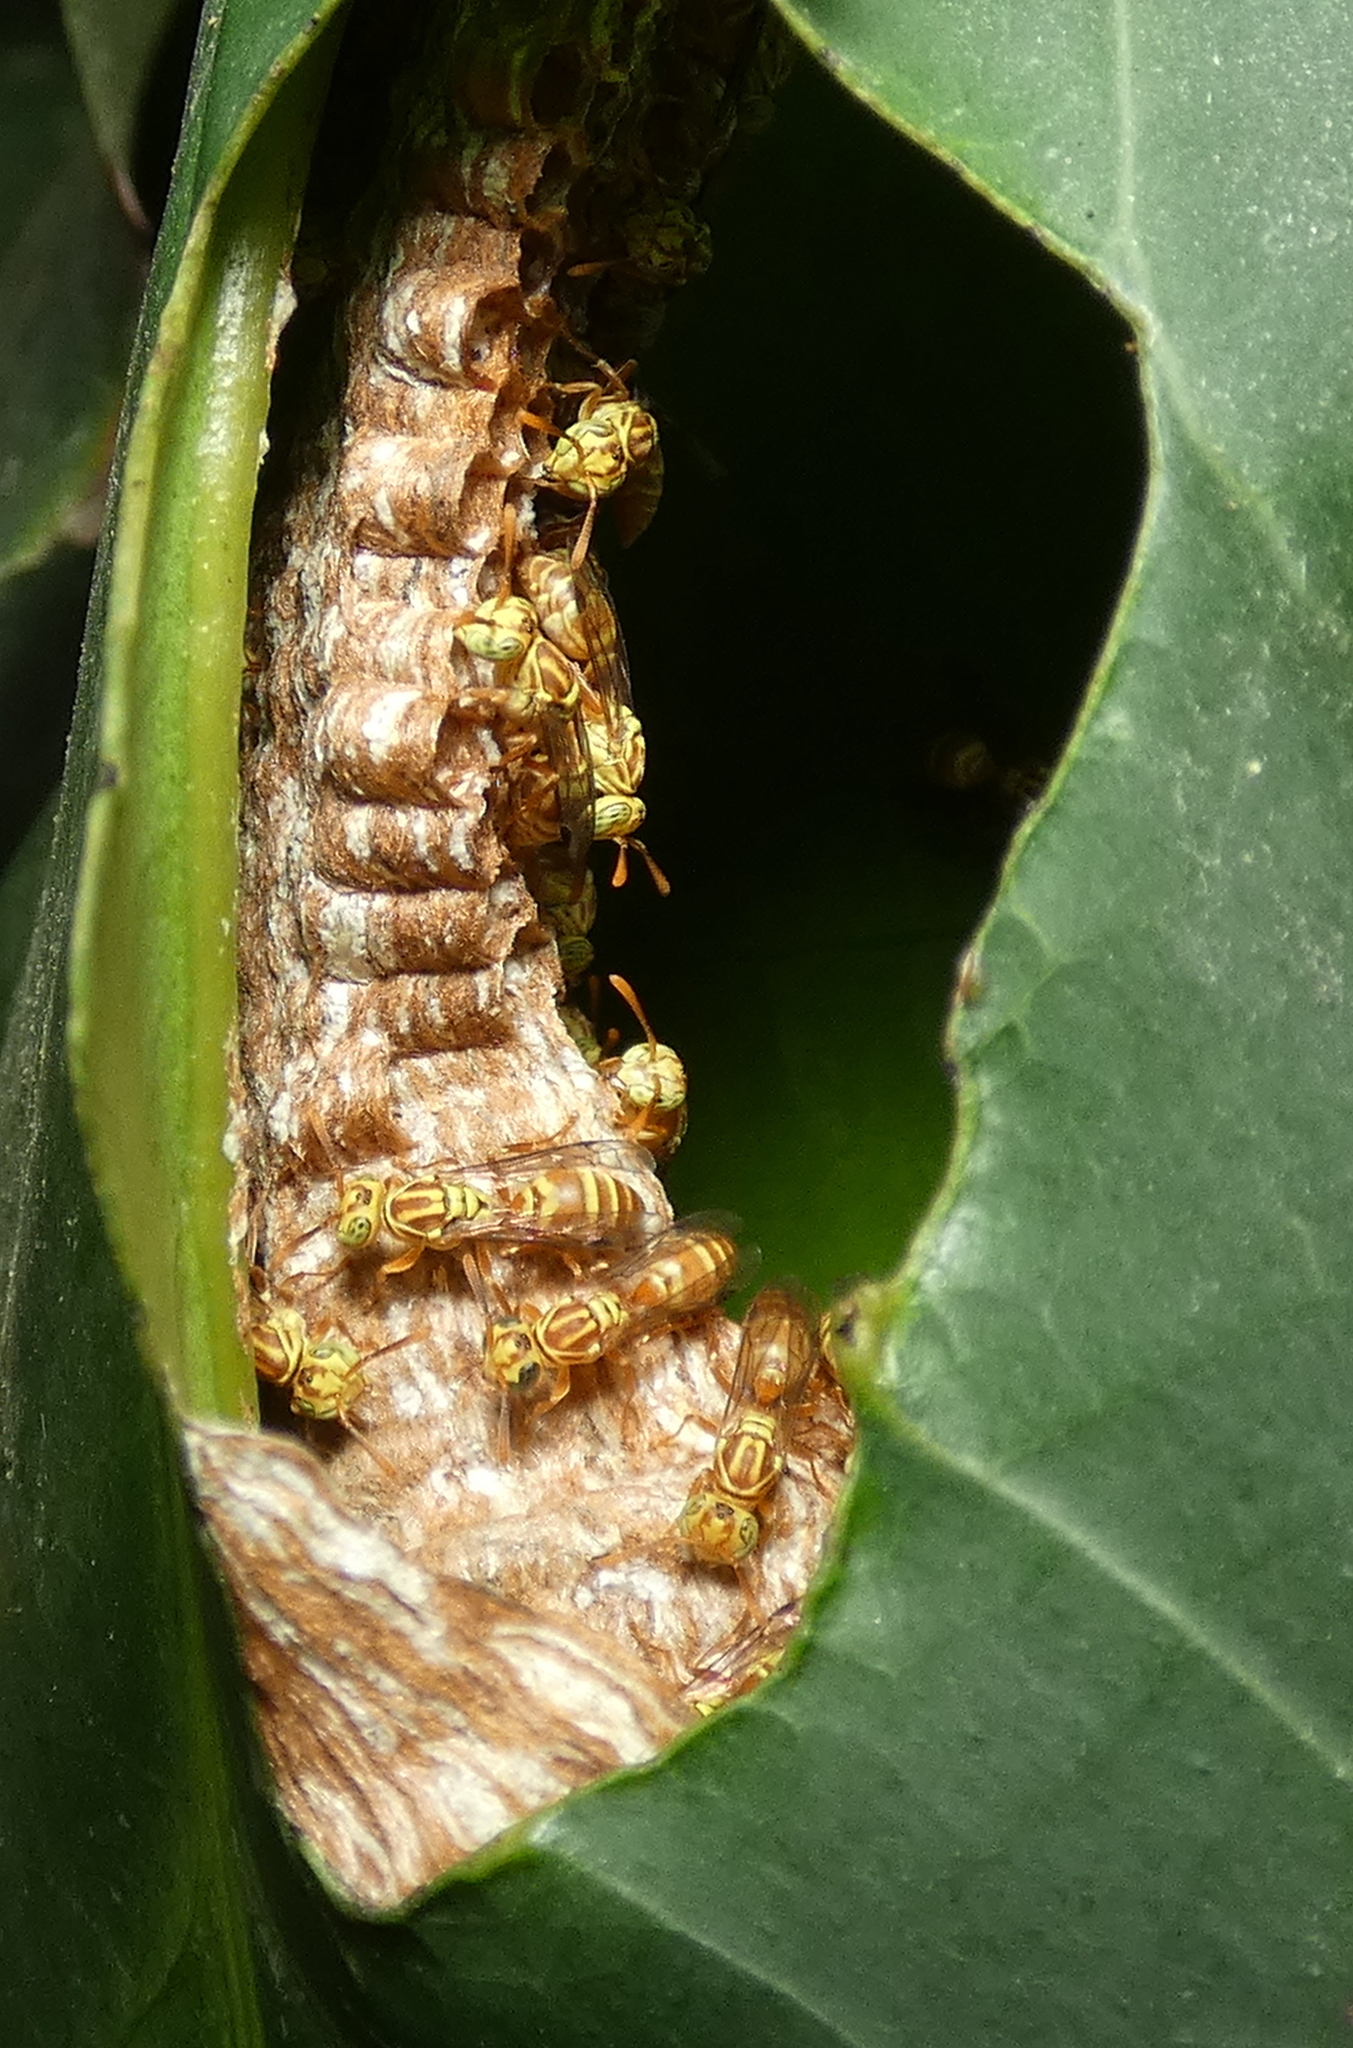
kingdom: Animalia
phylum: Arthropoda
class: Insecta
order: Hymenoptera
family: Vespidae
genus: Protopolybia
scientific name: Protopolybia potiguara
